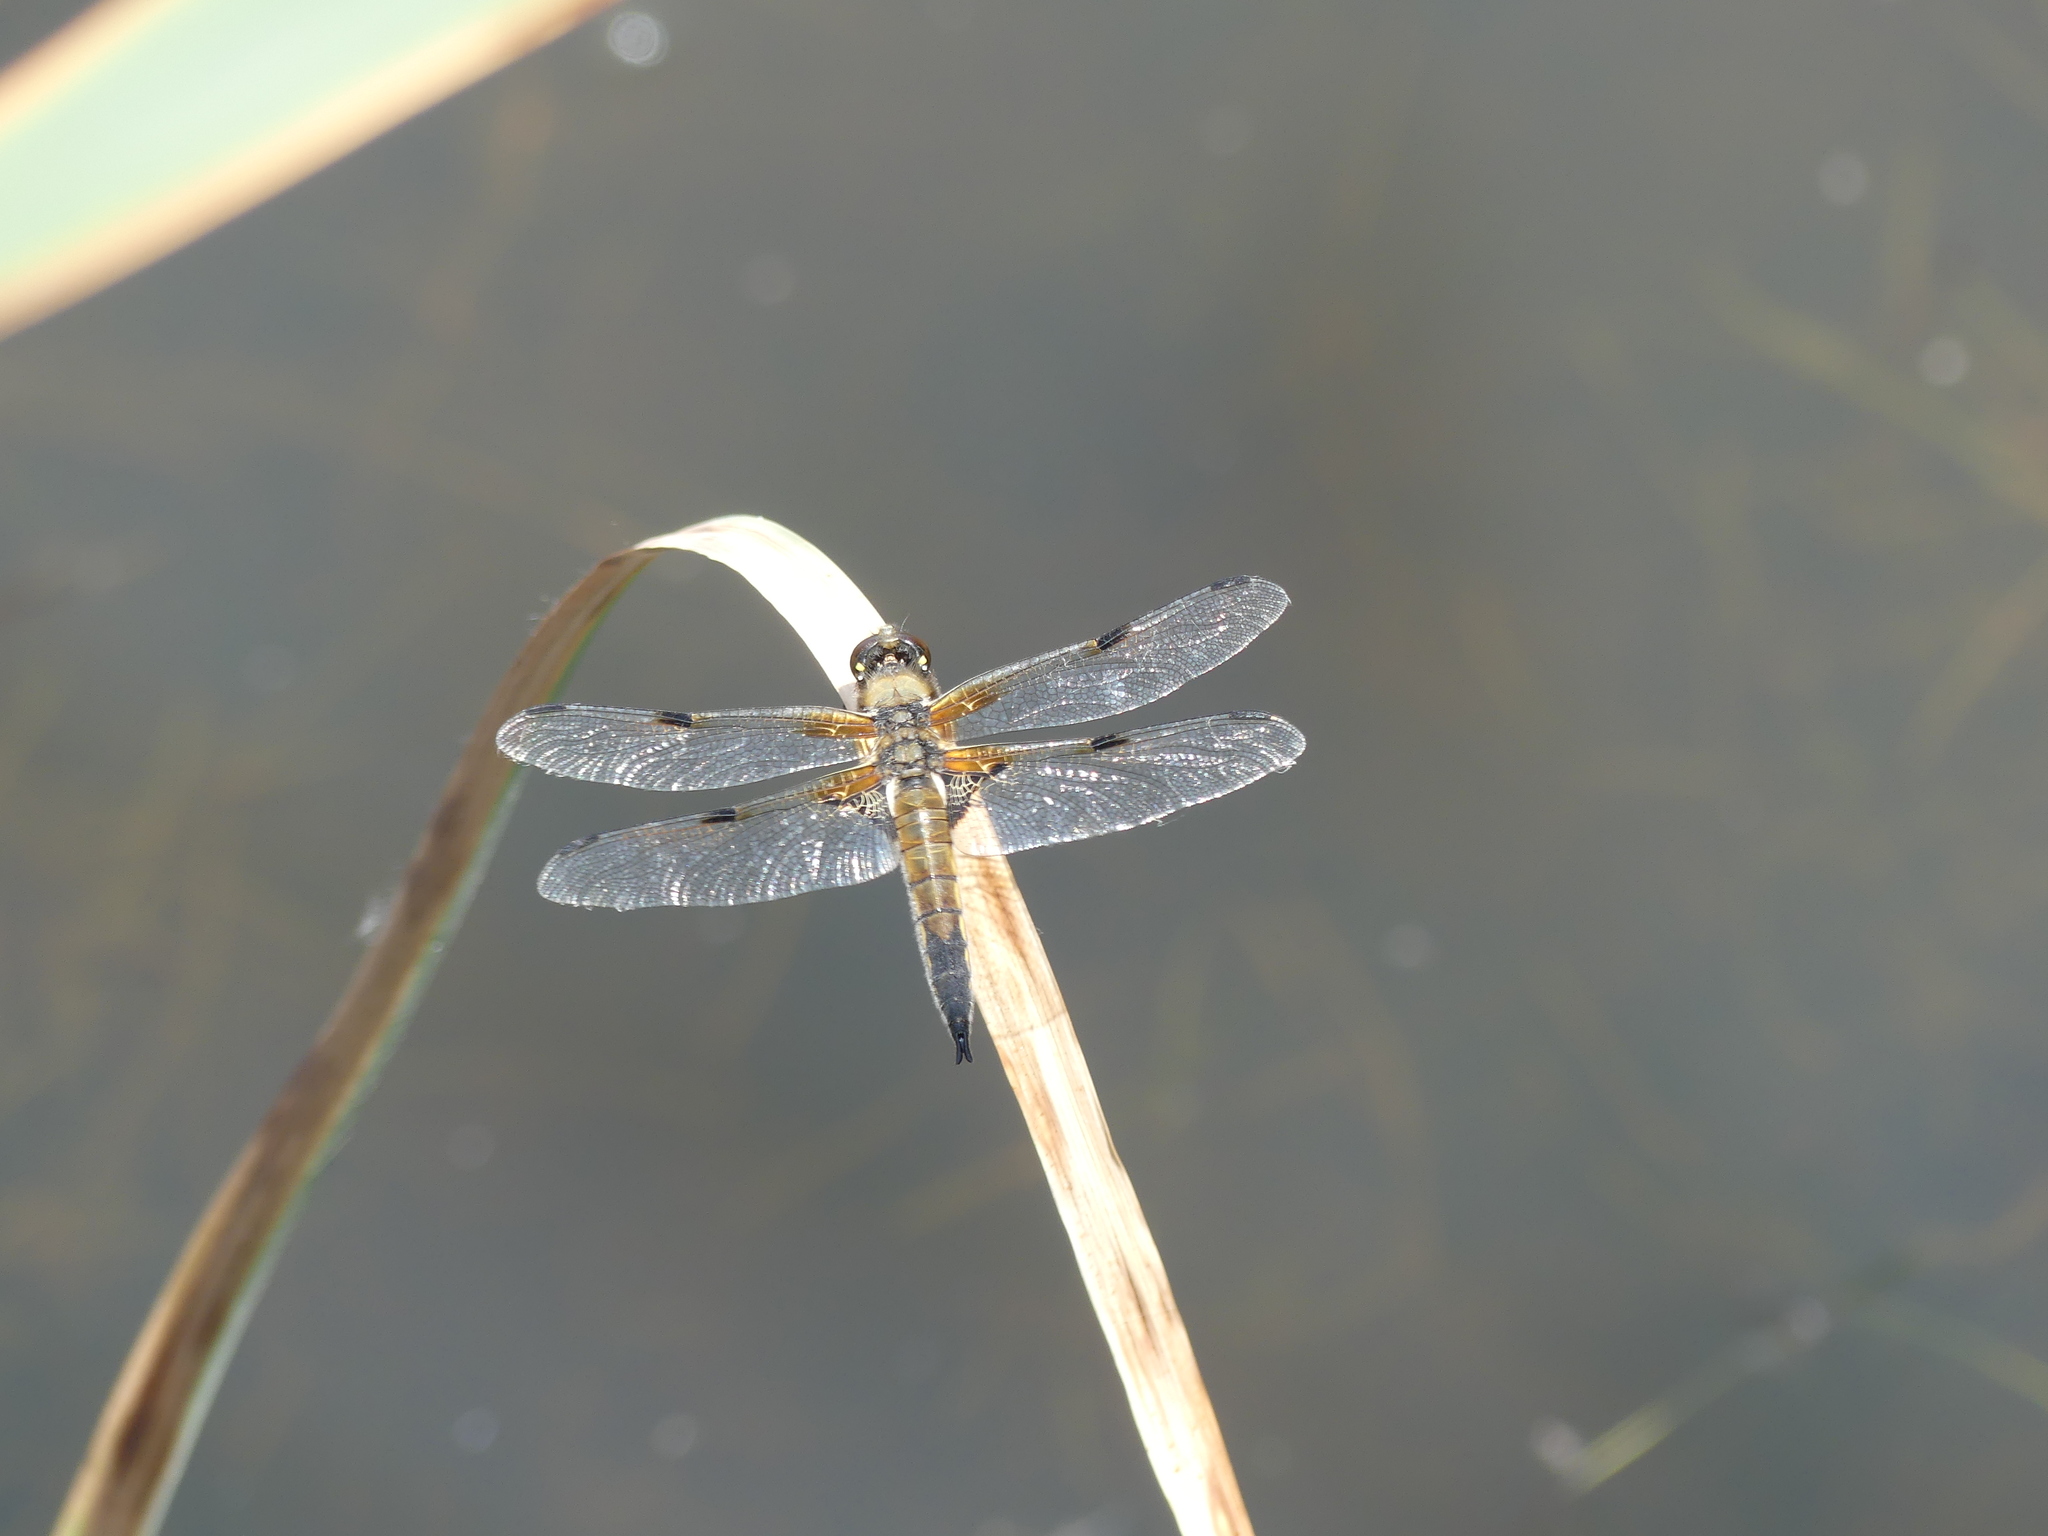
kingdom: Animalia
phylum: Arthropoda
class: Insecta
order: Odonata
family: Libellulidae
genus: Libellula
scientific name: Libellula quadrimaculata
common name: Four-spotted chaser
